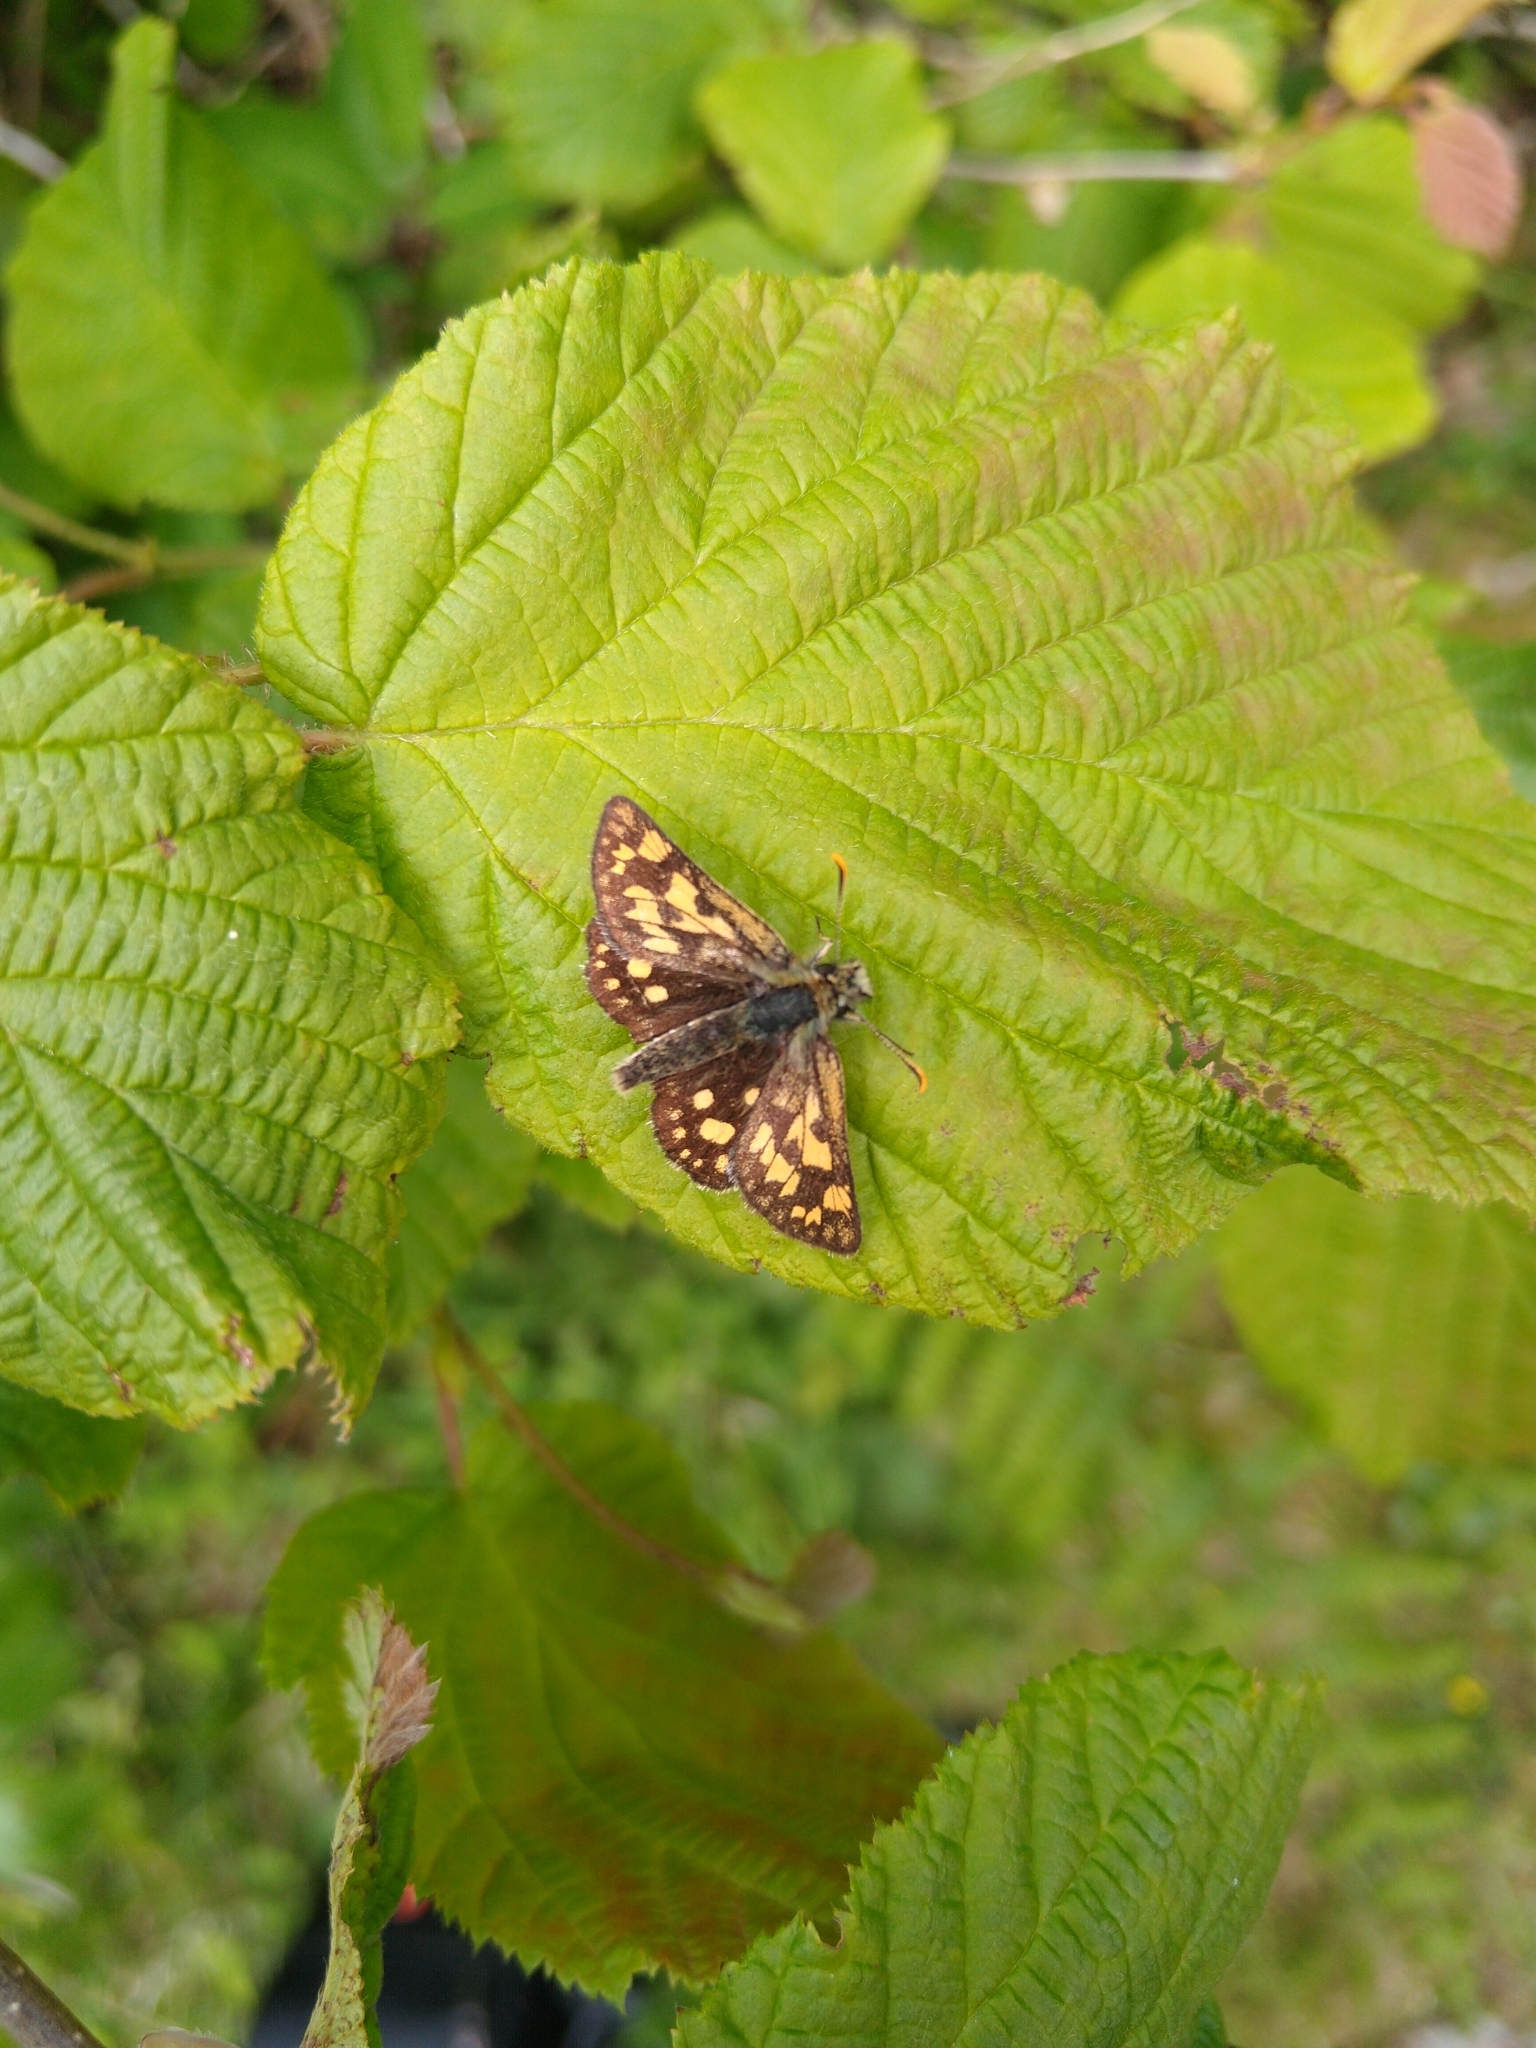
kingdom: Animalia
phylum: Arthropoda
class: Insecta
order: Lepidoptera
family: Hesperiidae
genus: Carterocephalus
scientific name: Carterocephalus palaemon
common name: Chequered skipper
